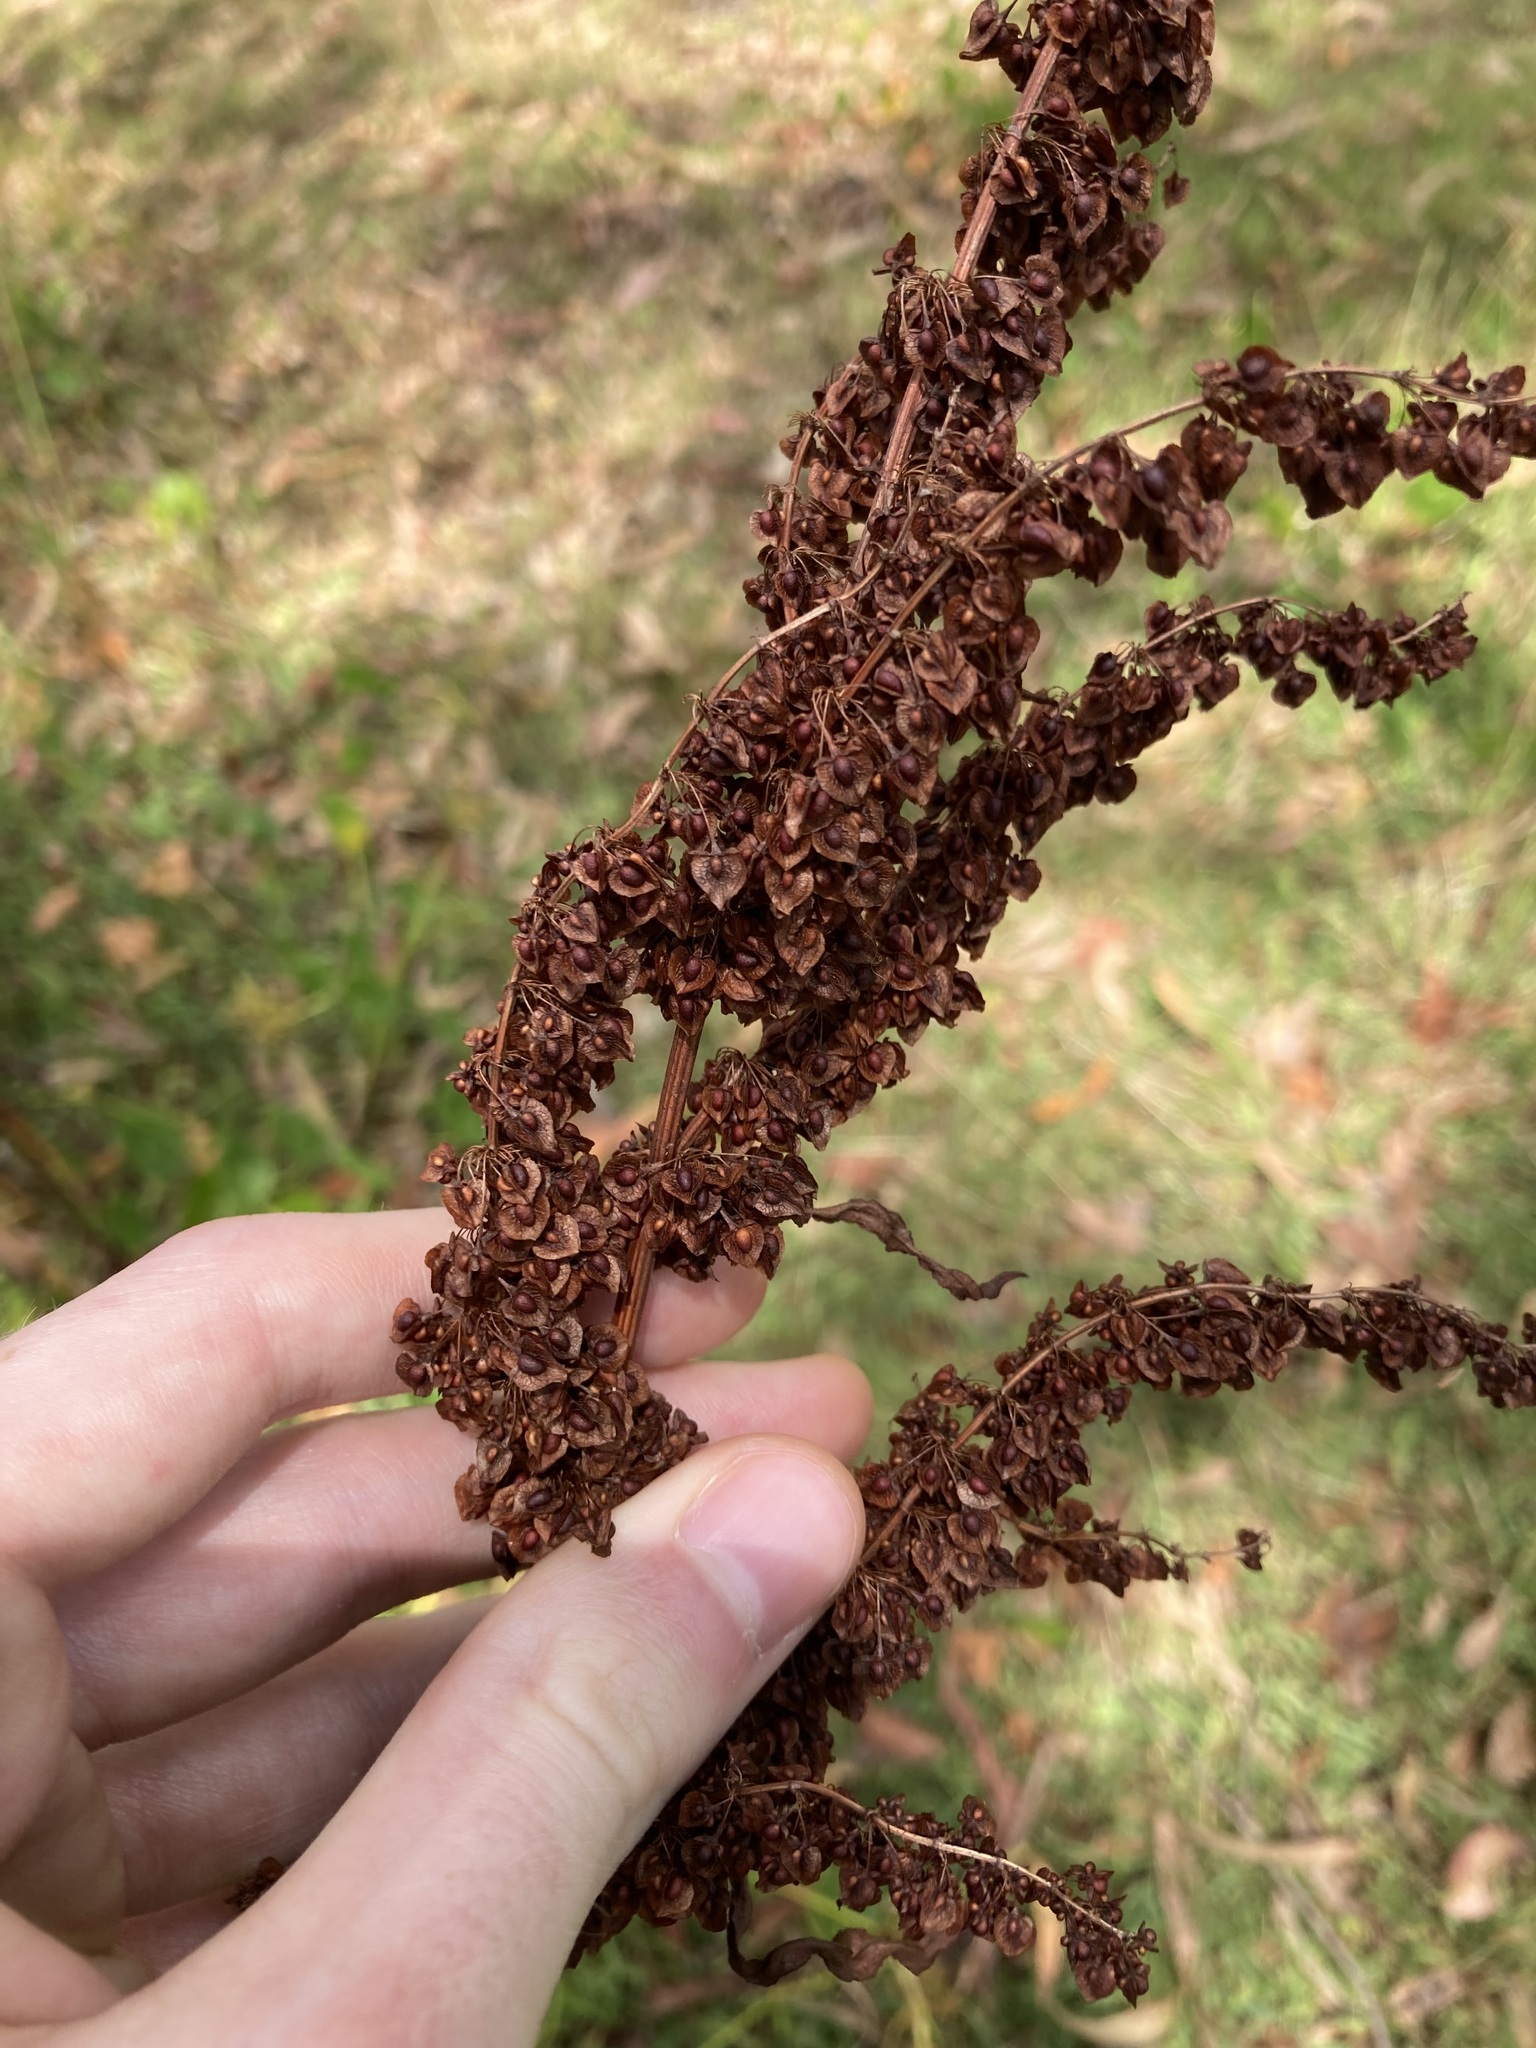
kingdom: Plantae
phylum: Tracheophyta
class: Magnoliopsida
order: Caryophyllales
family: Polygonaceae
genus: Rumex
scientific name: Rumex crispus
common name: Curled dock
